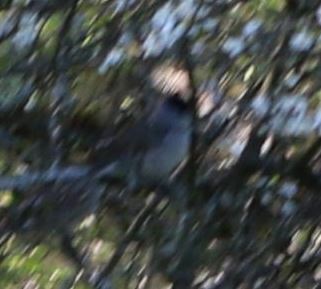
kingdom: Animalia
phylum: Chordata
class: Aves
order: Passeriformes
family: Sylviidae
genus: Sylvia
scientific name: Sylvia atricapilla
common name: Eurasian blackcap
